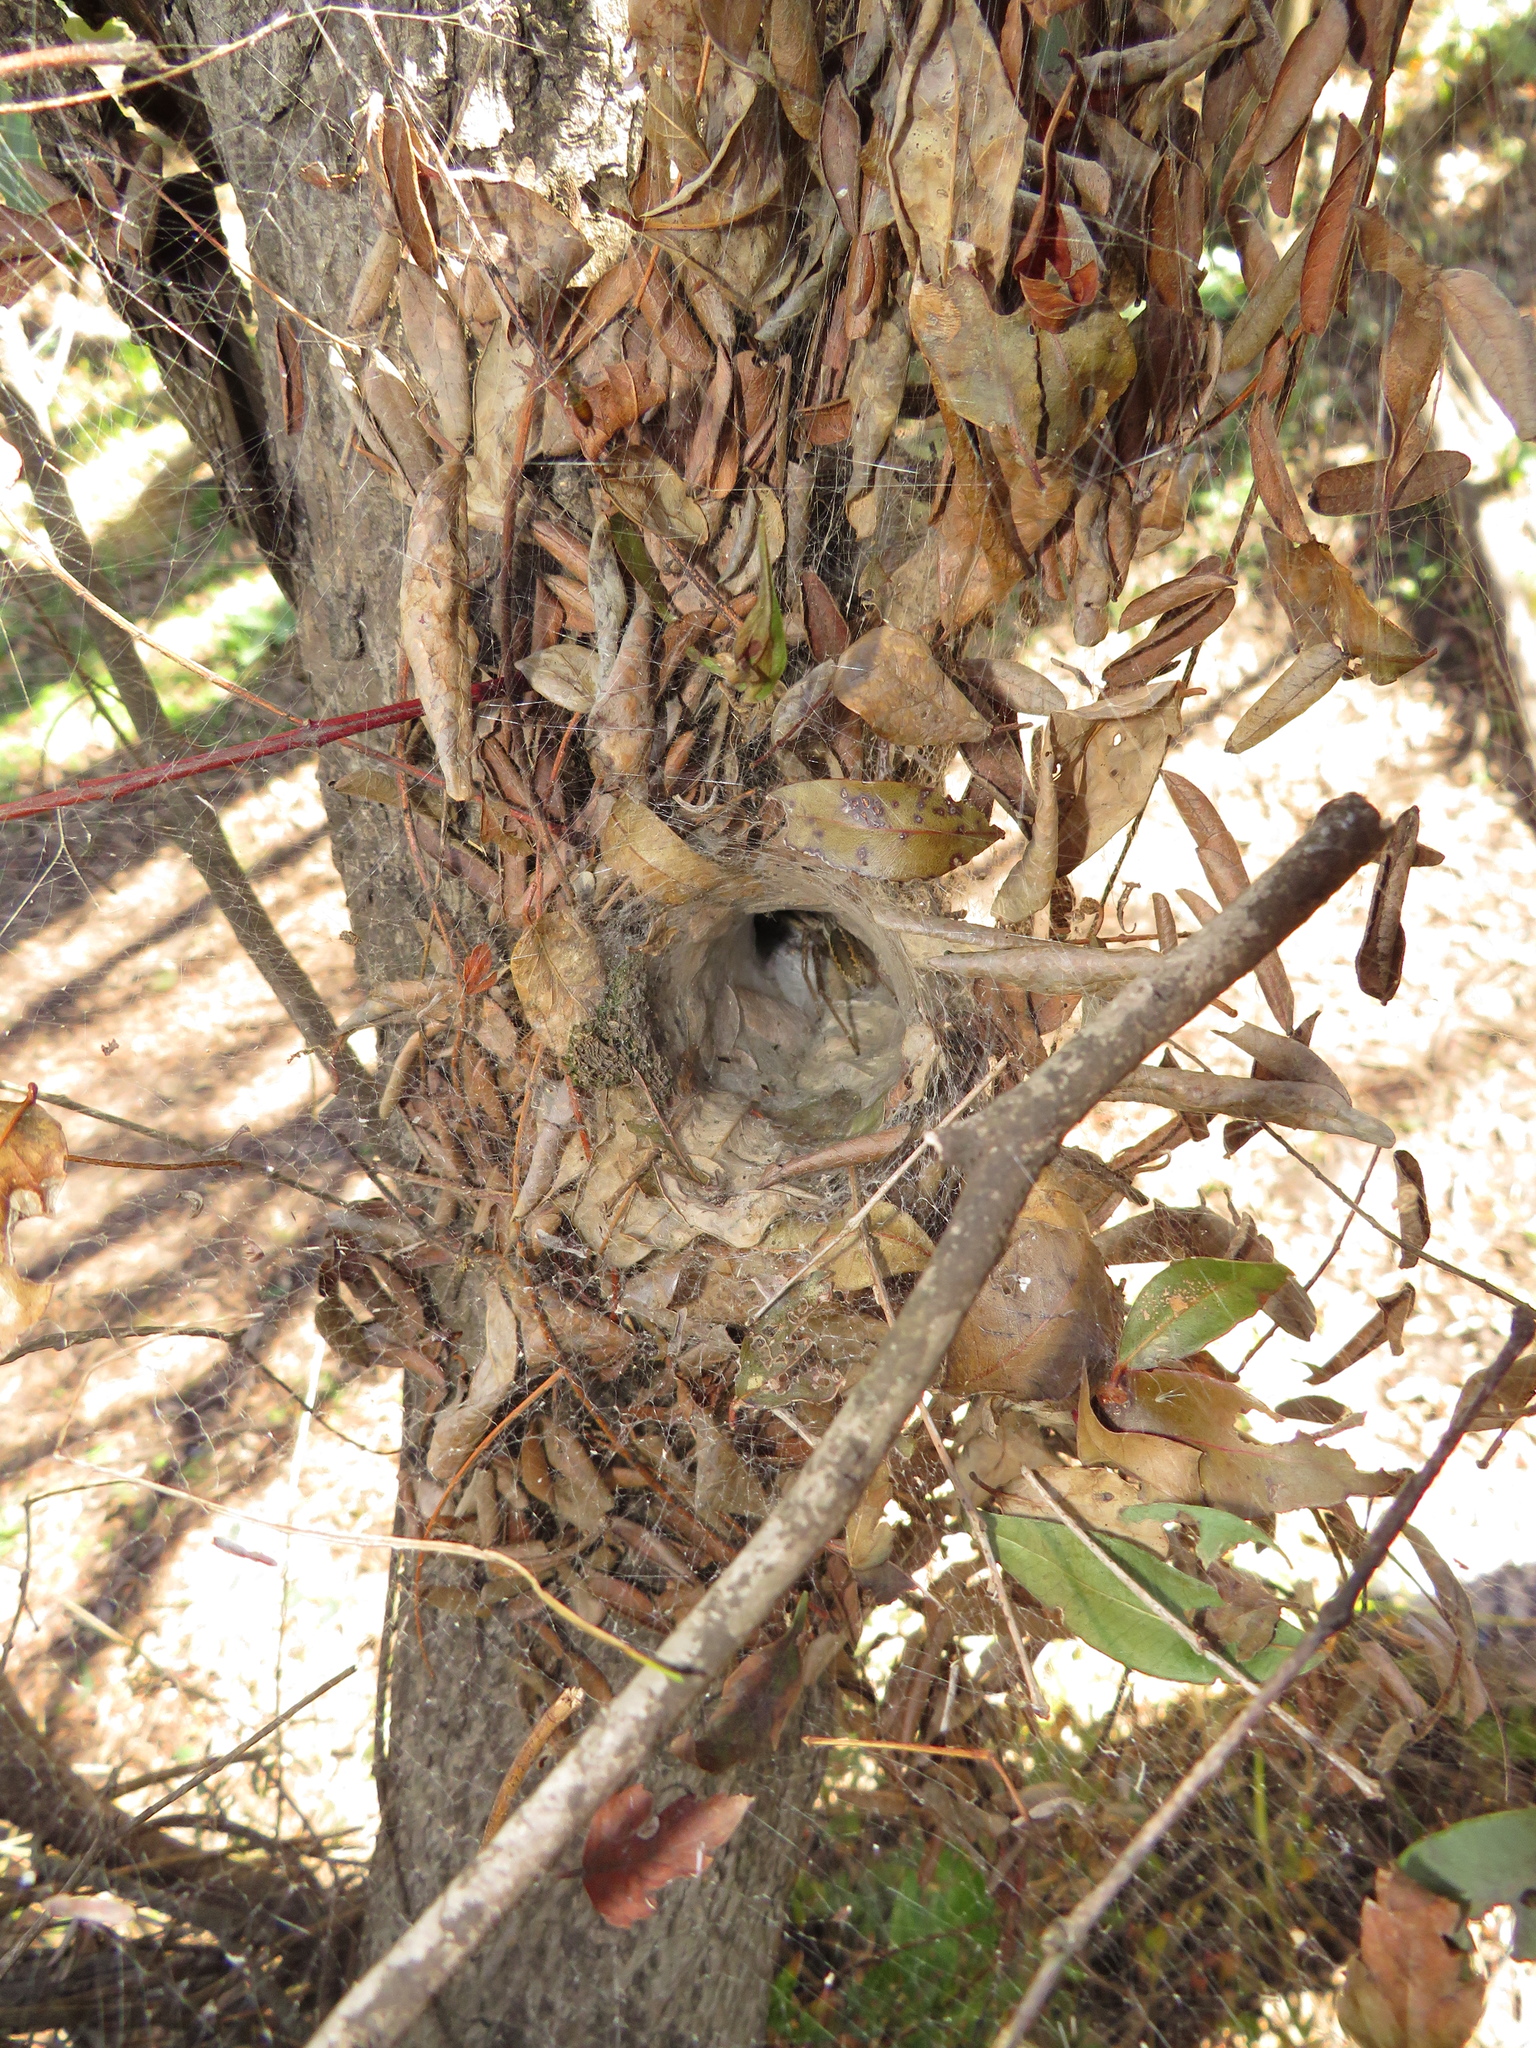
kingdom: Animalia
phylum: Arthropoda
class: Arachnida
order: Araneae
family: Lycosidae
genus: Aglaoctenus
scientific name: Aglaoctenus lagotis
